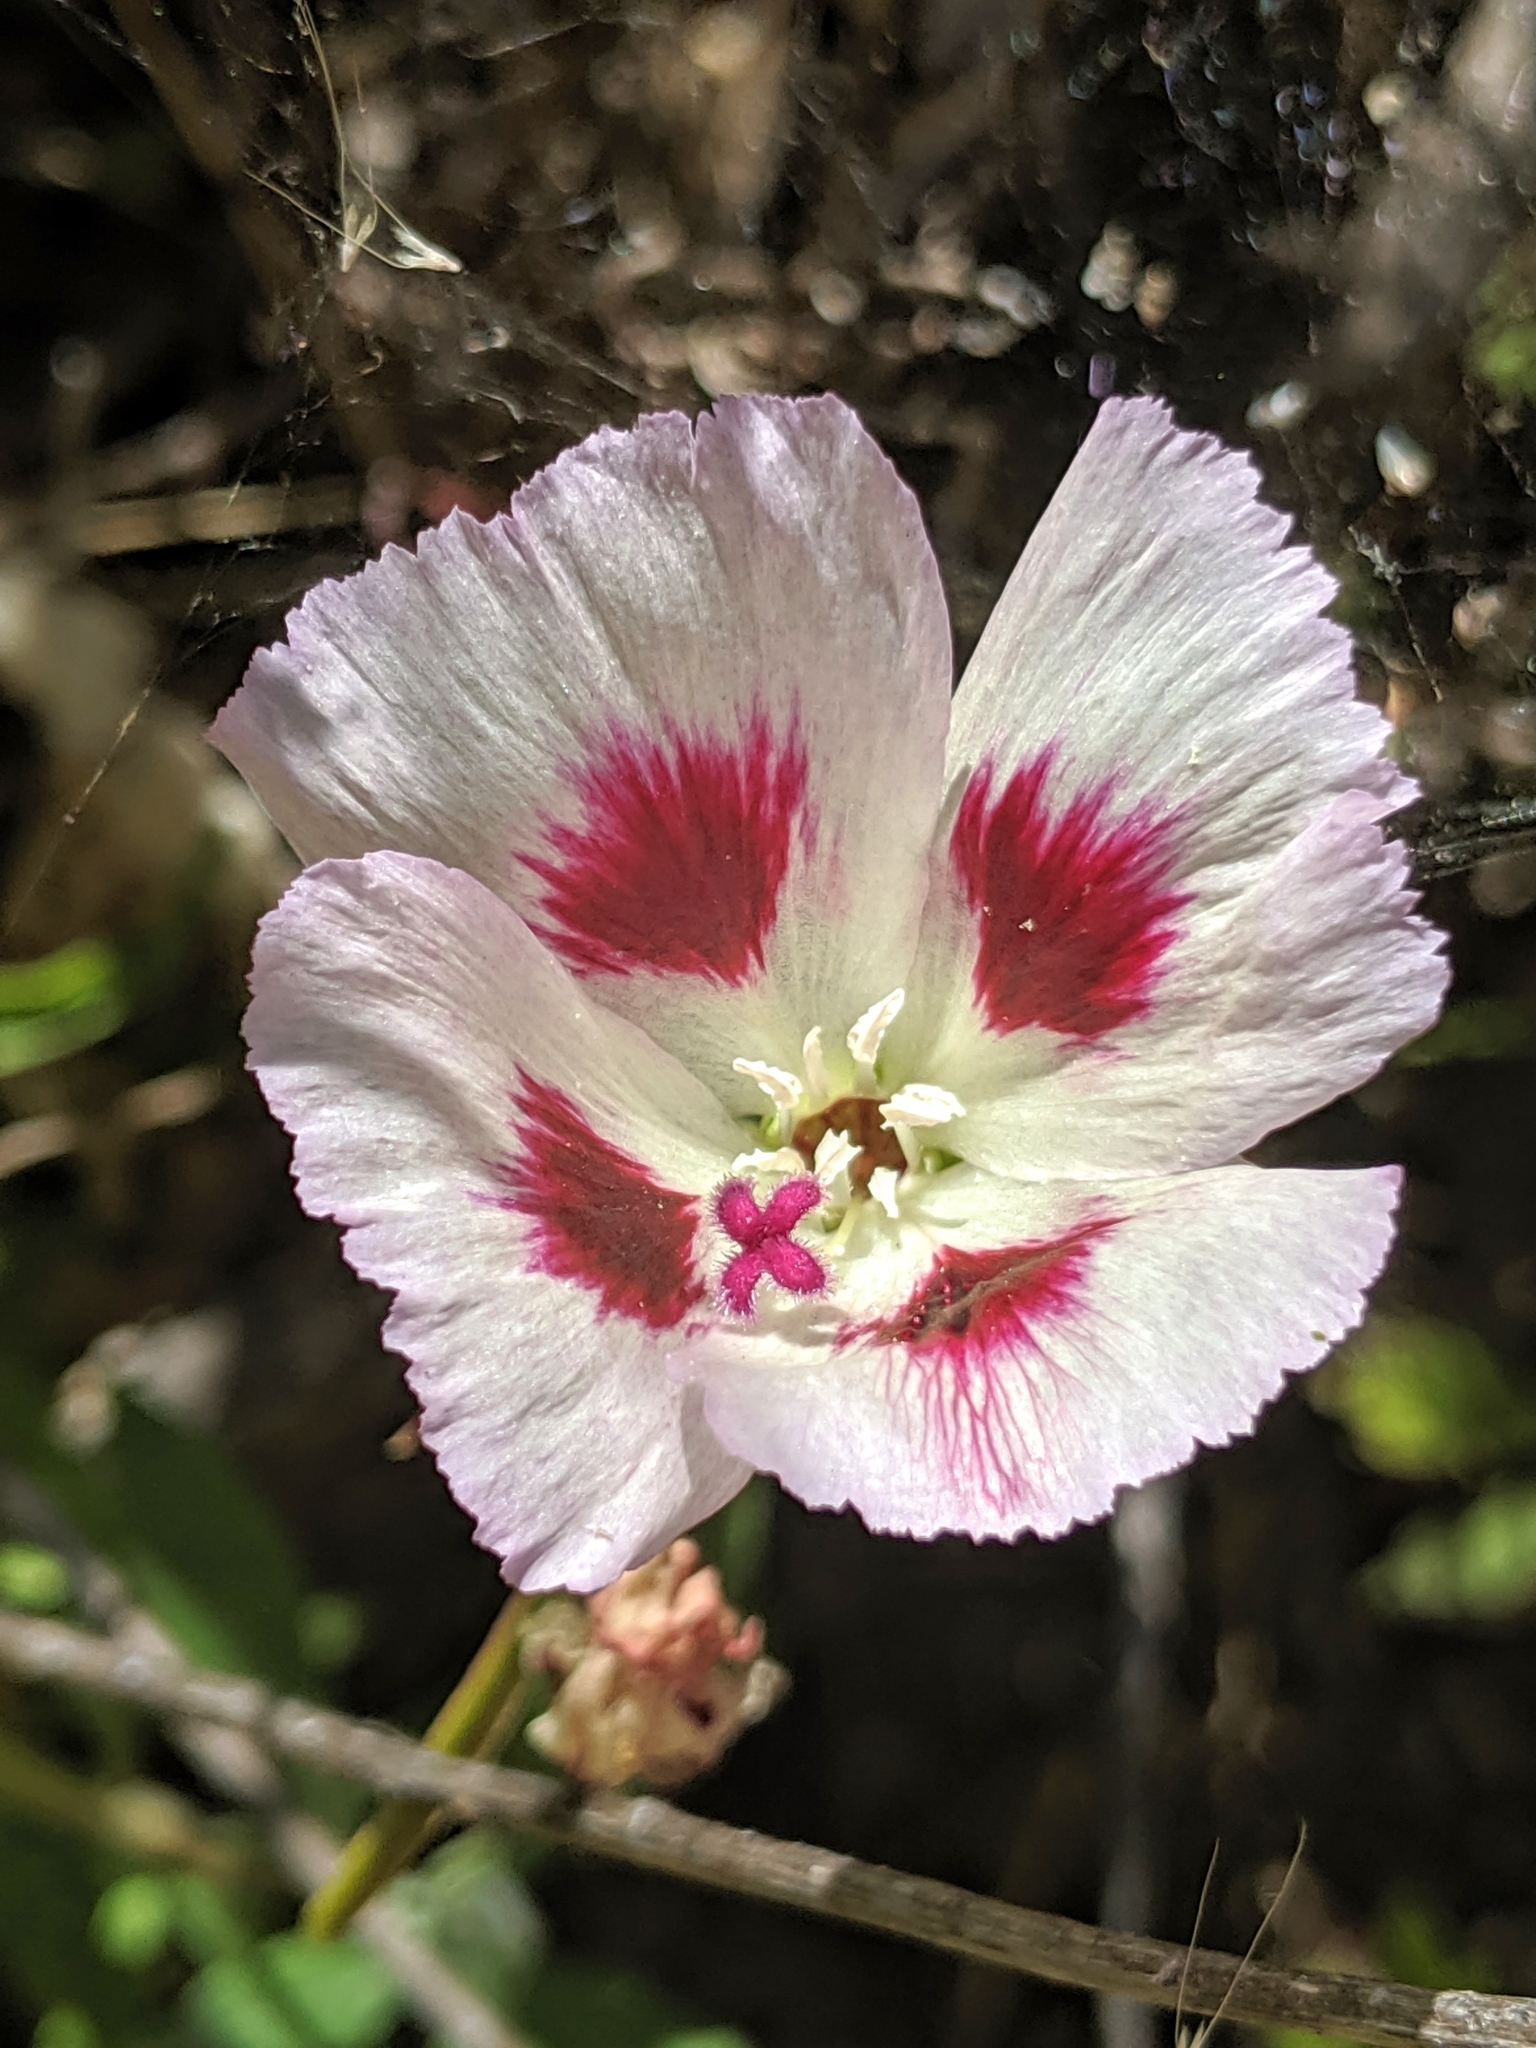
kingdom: Plantae
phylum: Tracheophyta
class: Magnoliopsida
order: Myrtales
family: Onagraceae
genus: Clarkia
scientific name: Clarkia speciosa
